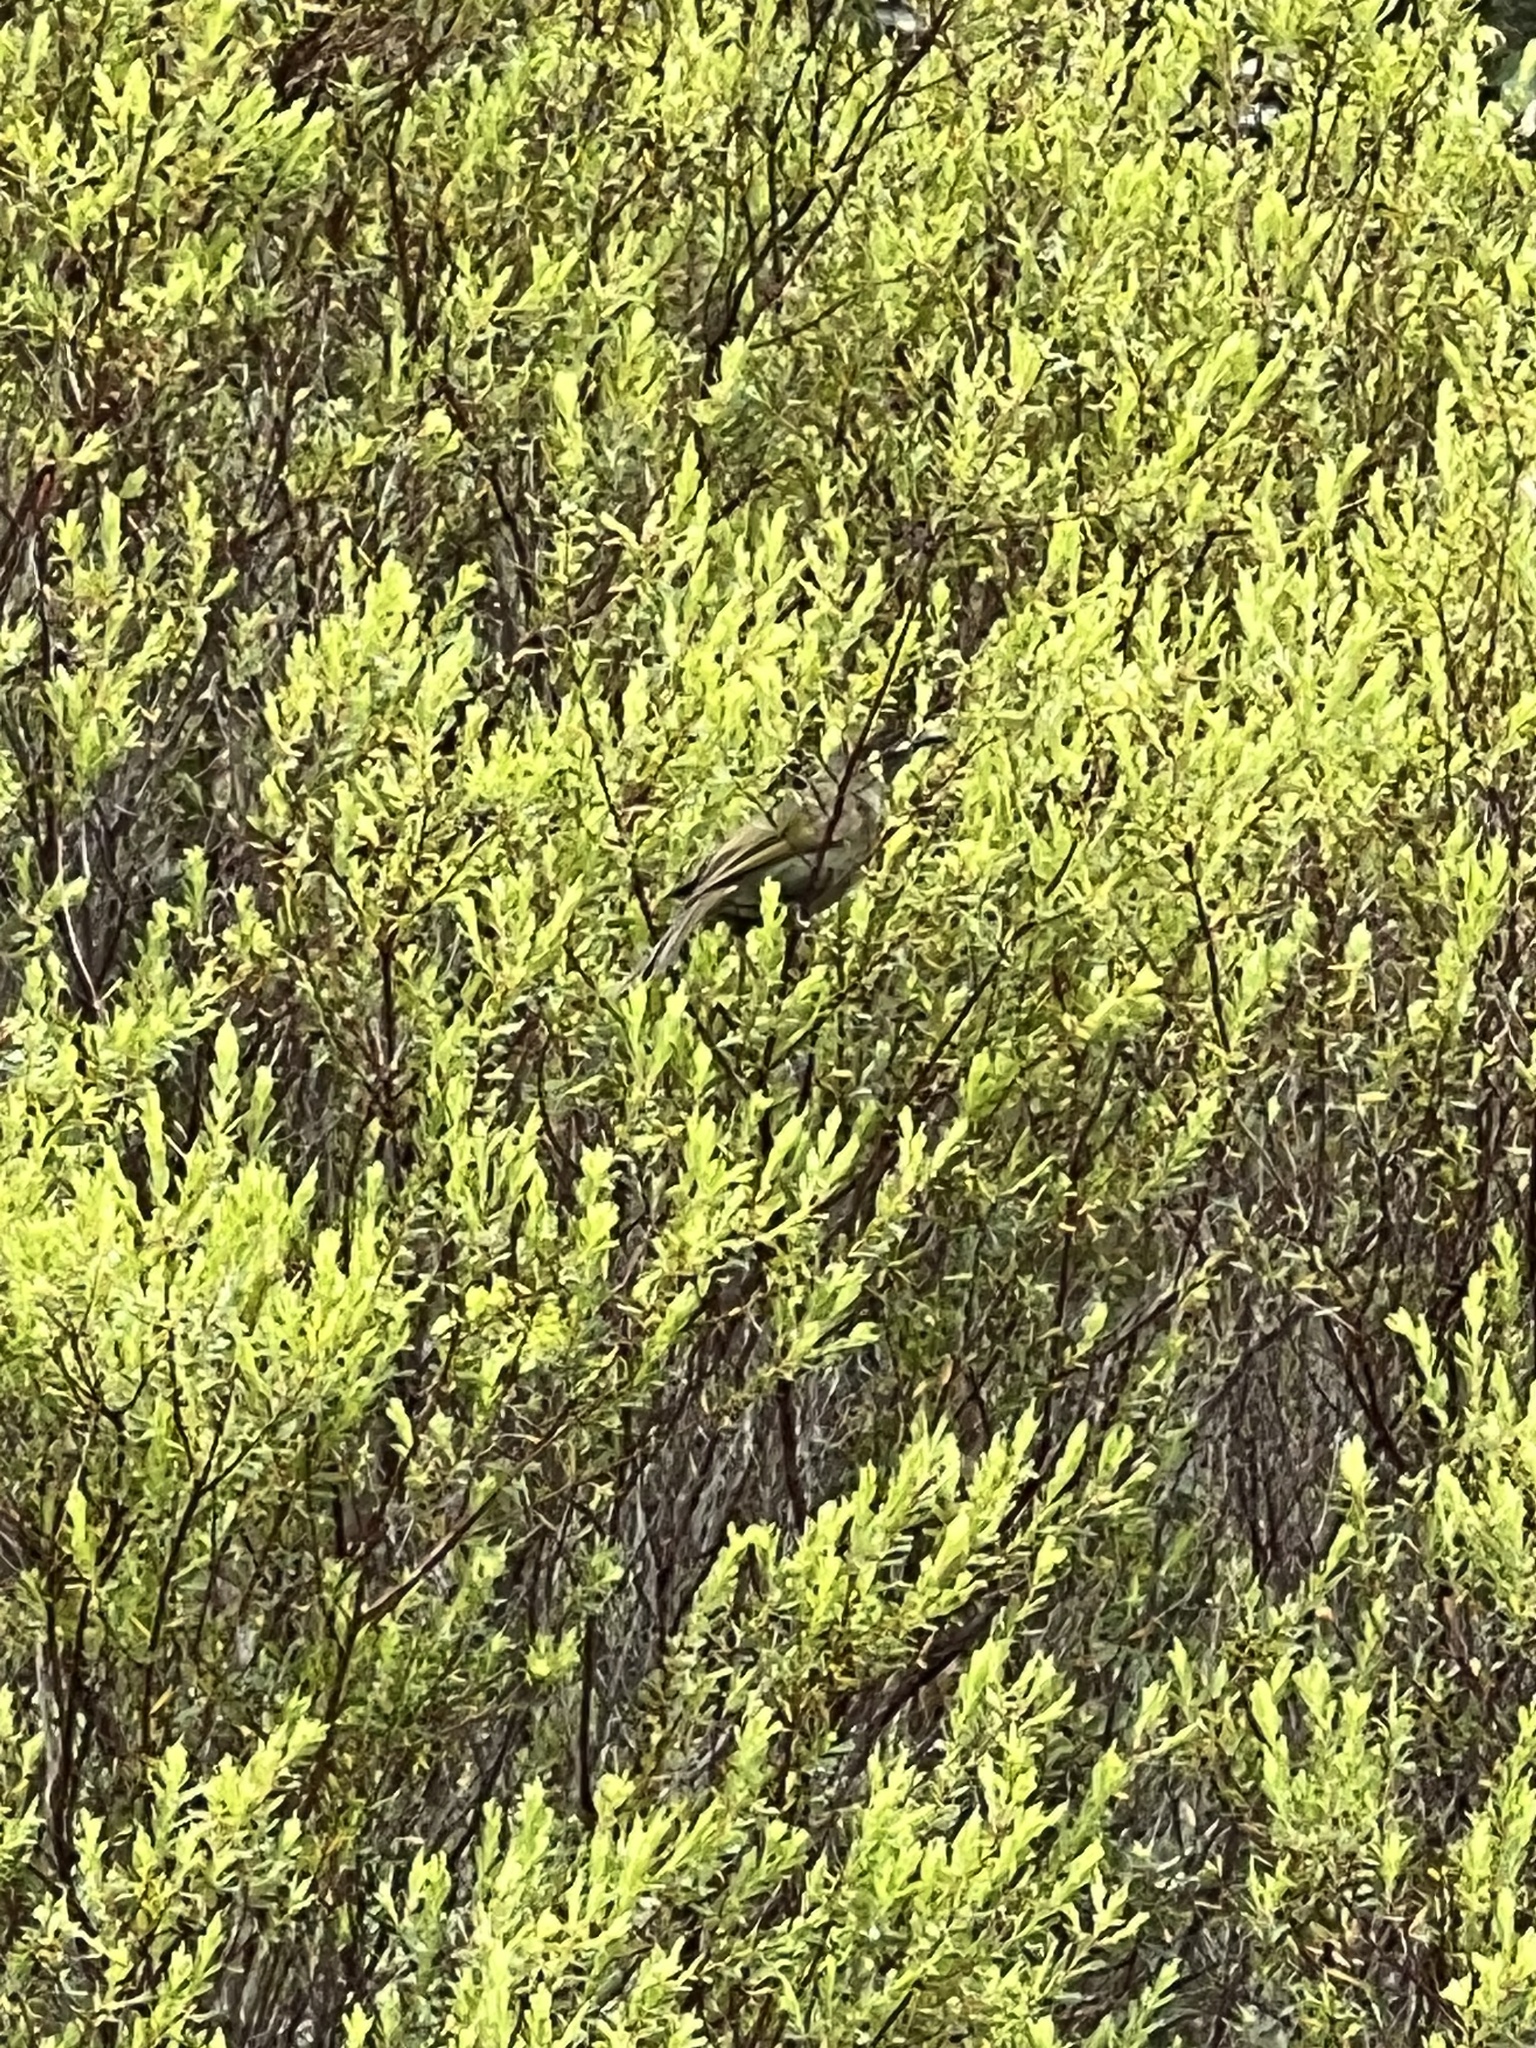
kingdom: Animalia
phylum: Chordata
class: Aves
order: Passeriformes
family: Meliphagidae
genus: Meliphaga
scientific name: Meliphaga lewinii
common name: Lewin's honeyeater
